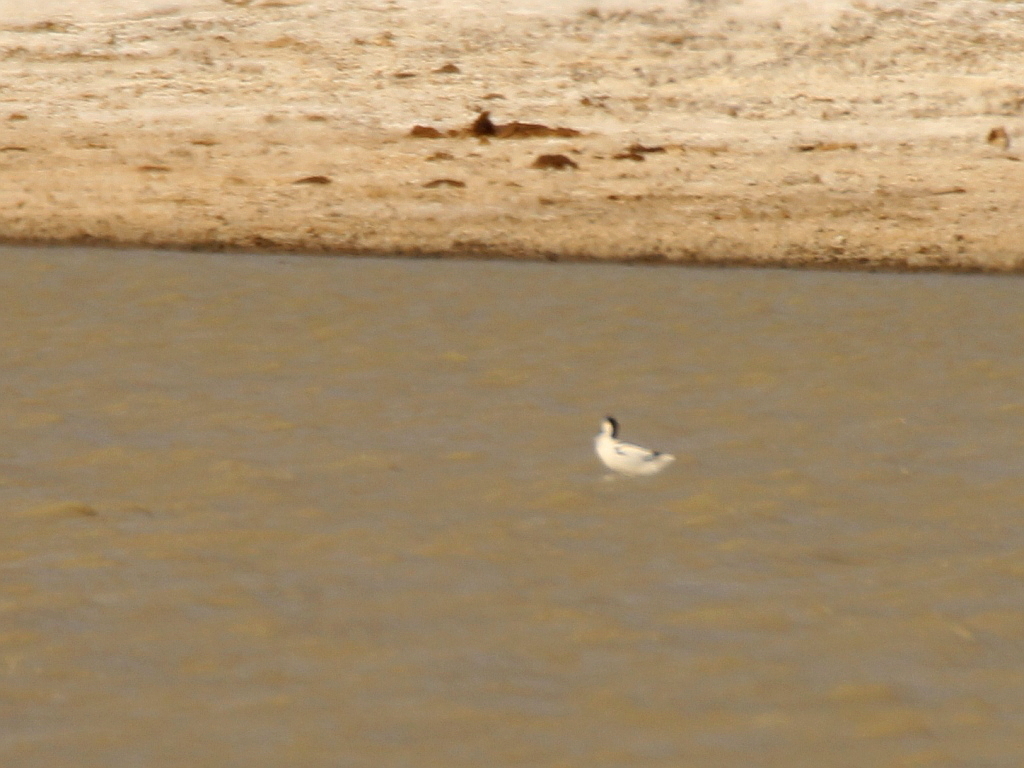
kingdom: Animalia
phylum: Chordata
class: Aves
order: Charadriiformes
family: Recurvirostridae
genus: Recurvirostra
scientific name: Recurvirostra avosetta
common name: Pied avocet
